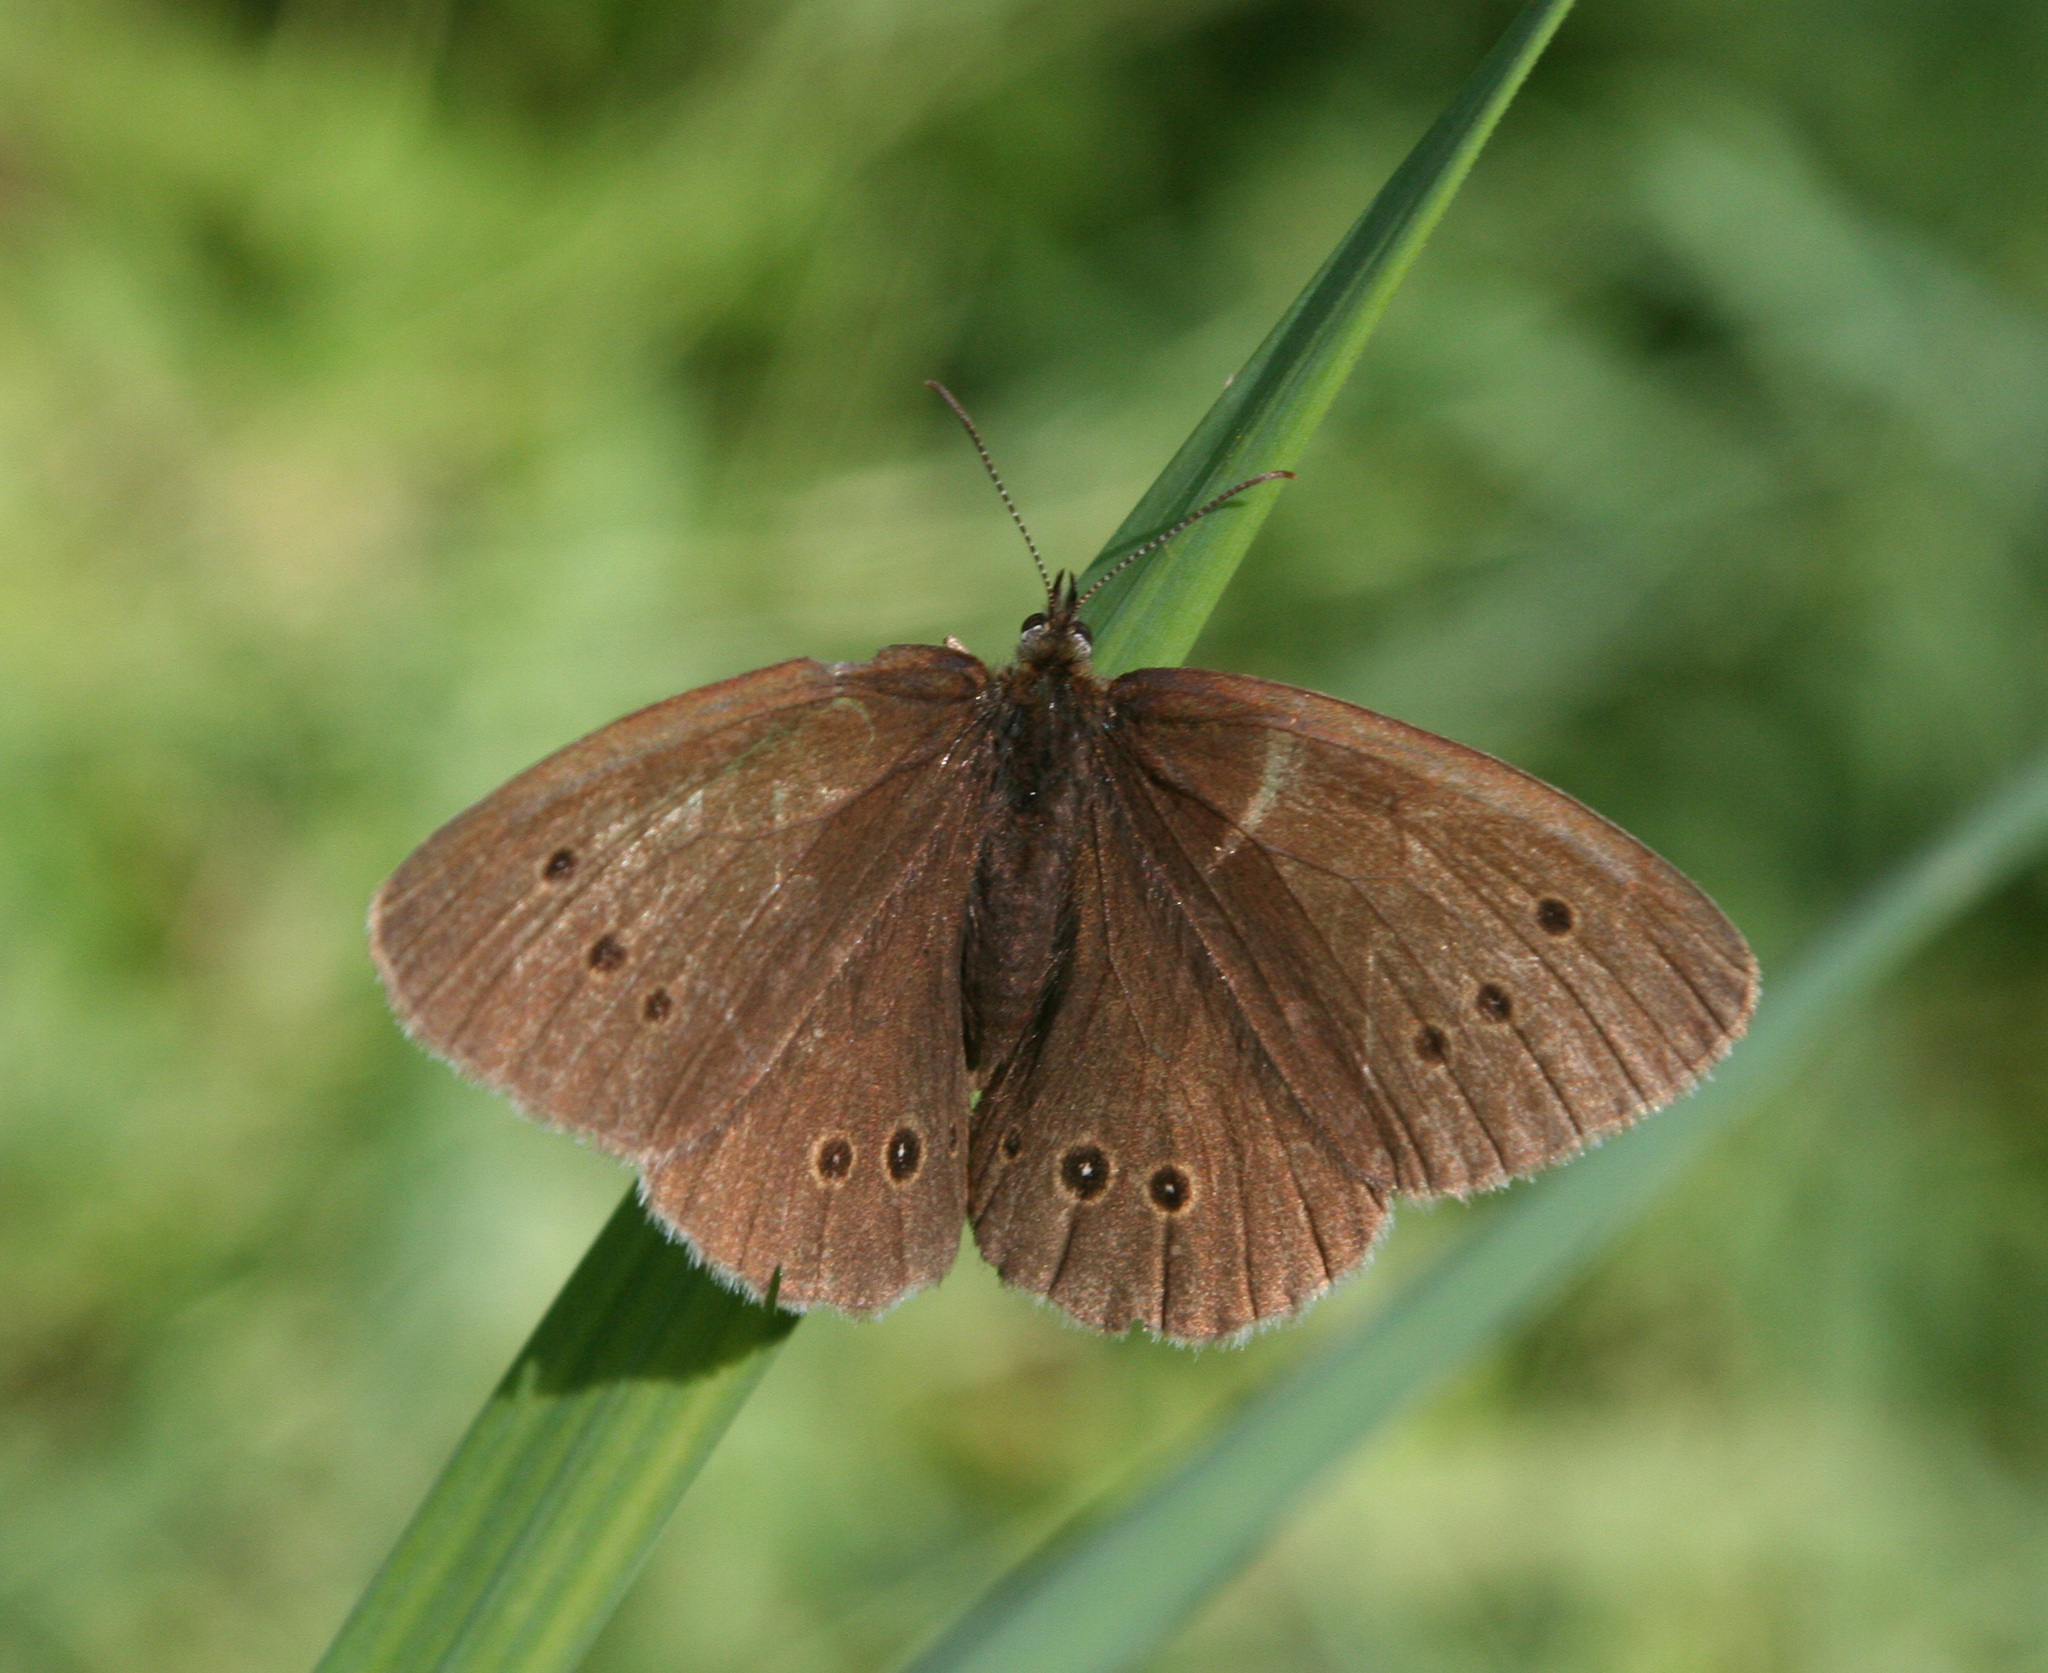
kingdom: Animalia
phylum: Arthropoda
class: Insecta
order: Lepidoptera
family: Nymphalidae
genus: Aphantopus
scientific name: Aphantopus hyperantus
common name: Ringlet
